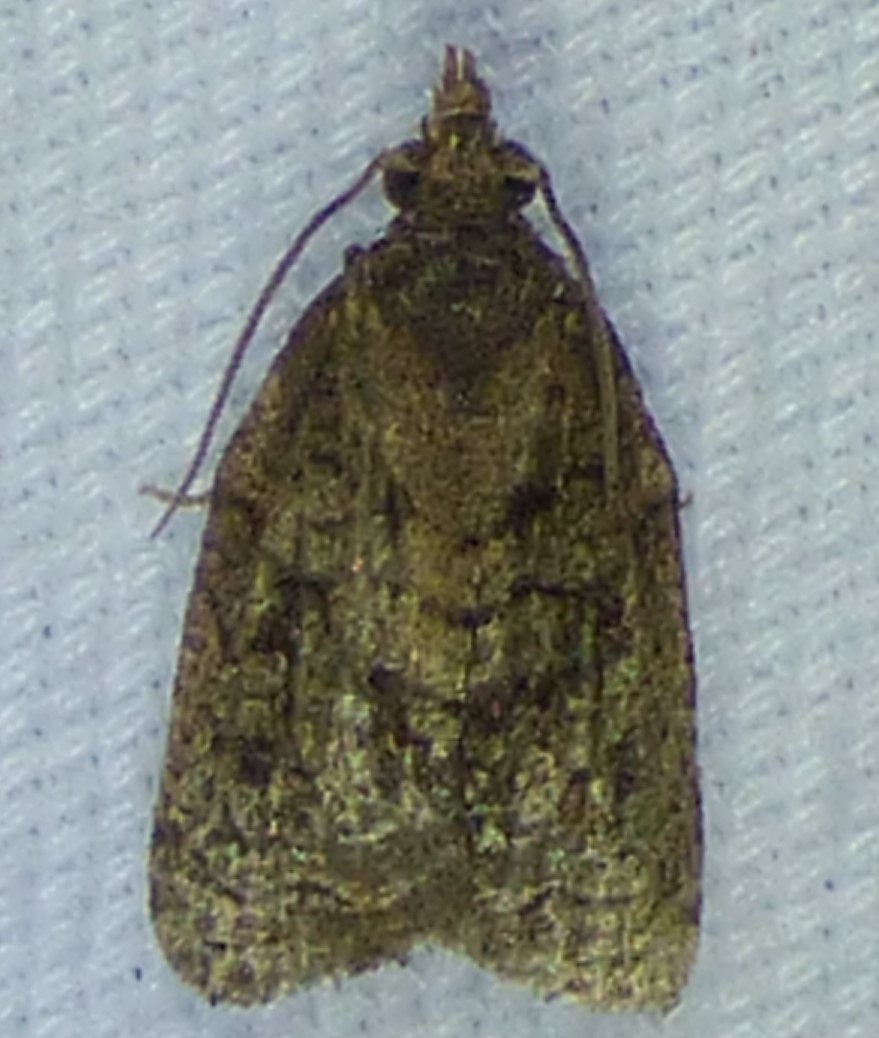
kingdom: Animalia
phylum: Arthropoda
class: Insecta
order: Lepidoptera
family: Tortricidae
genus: Platynota
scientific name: Platynota idaeusalis
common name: Tufted apple bud moth
